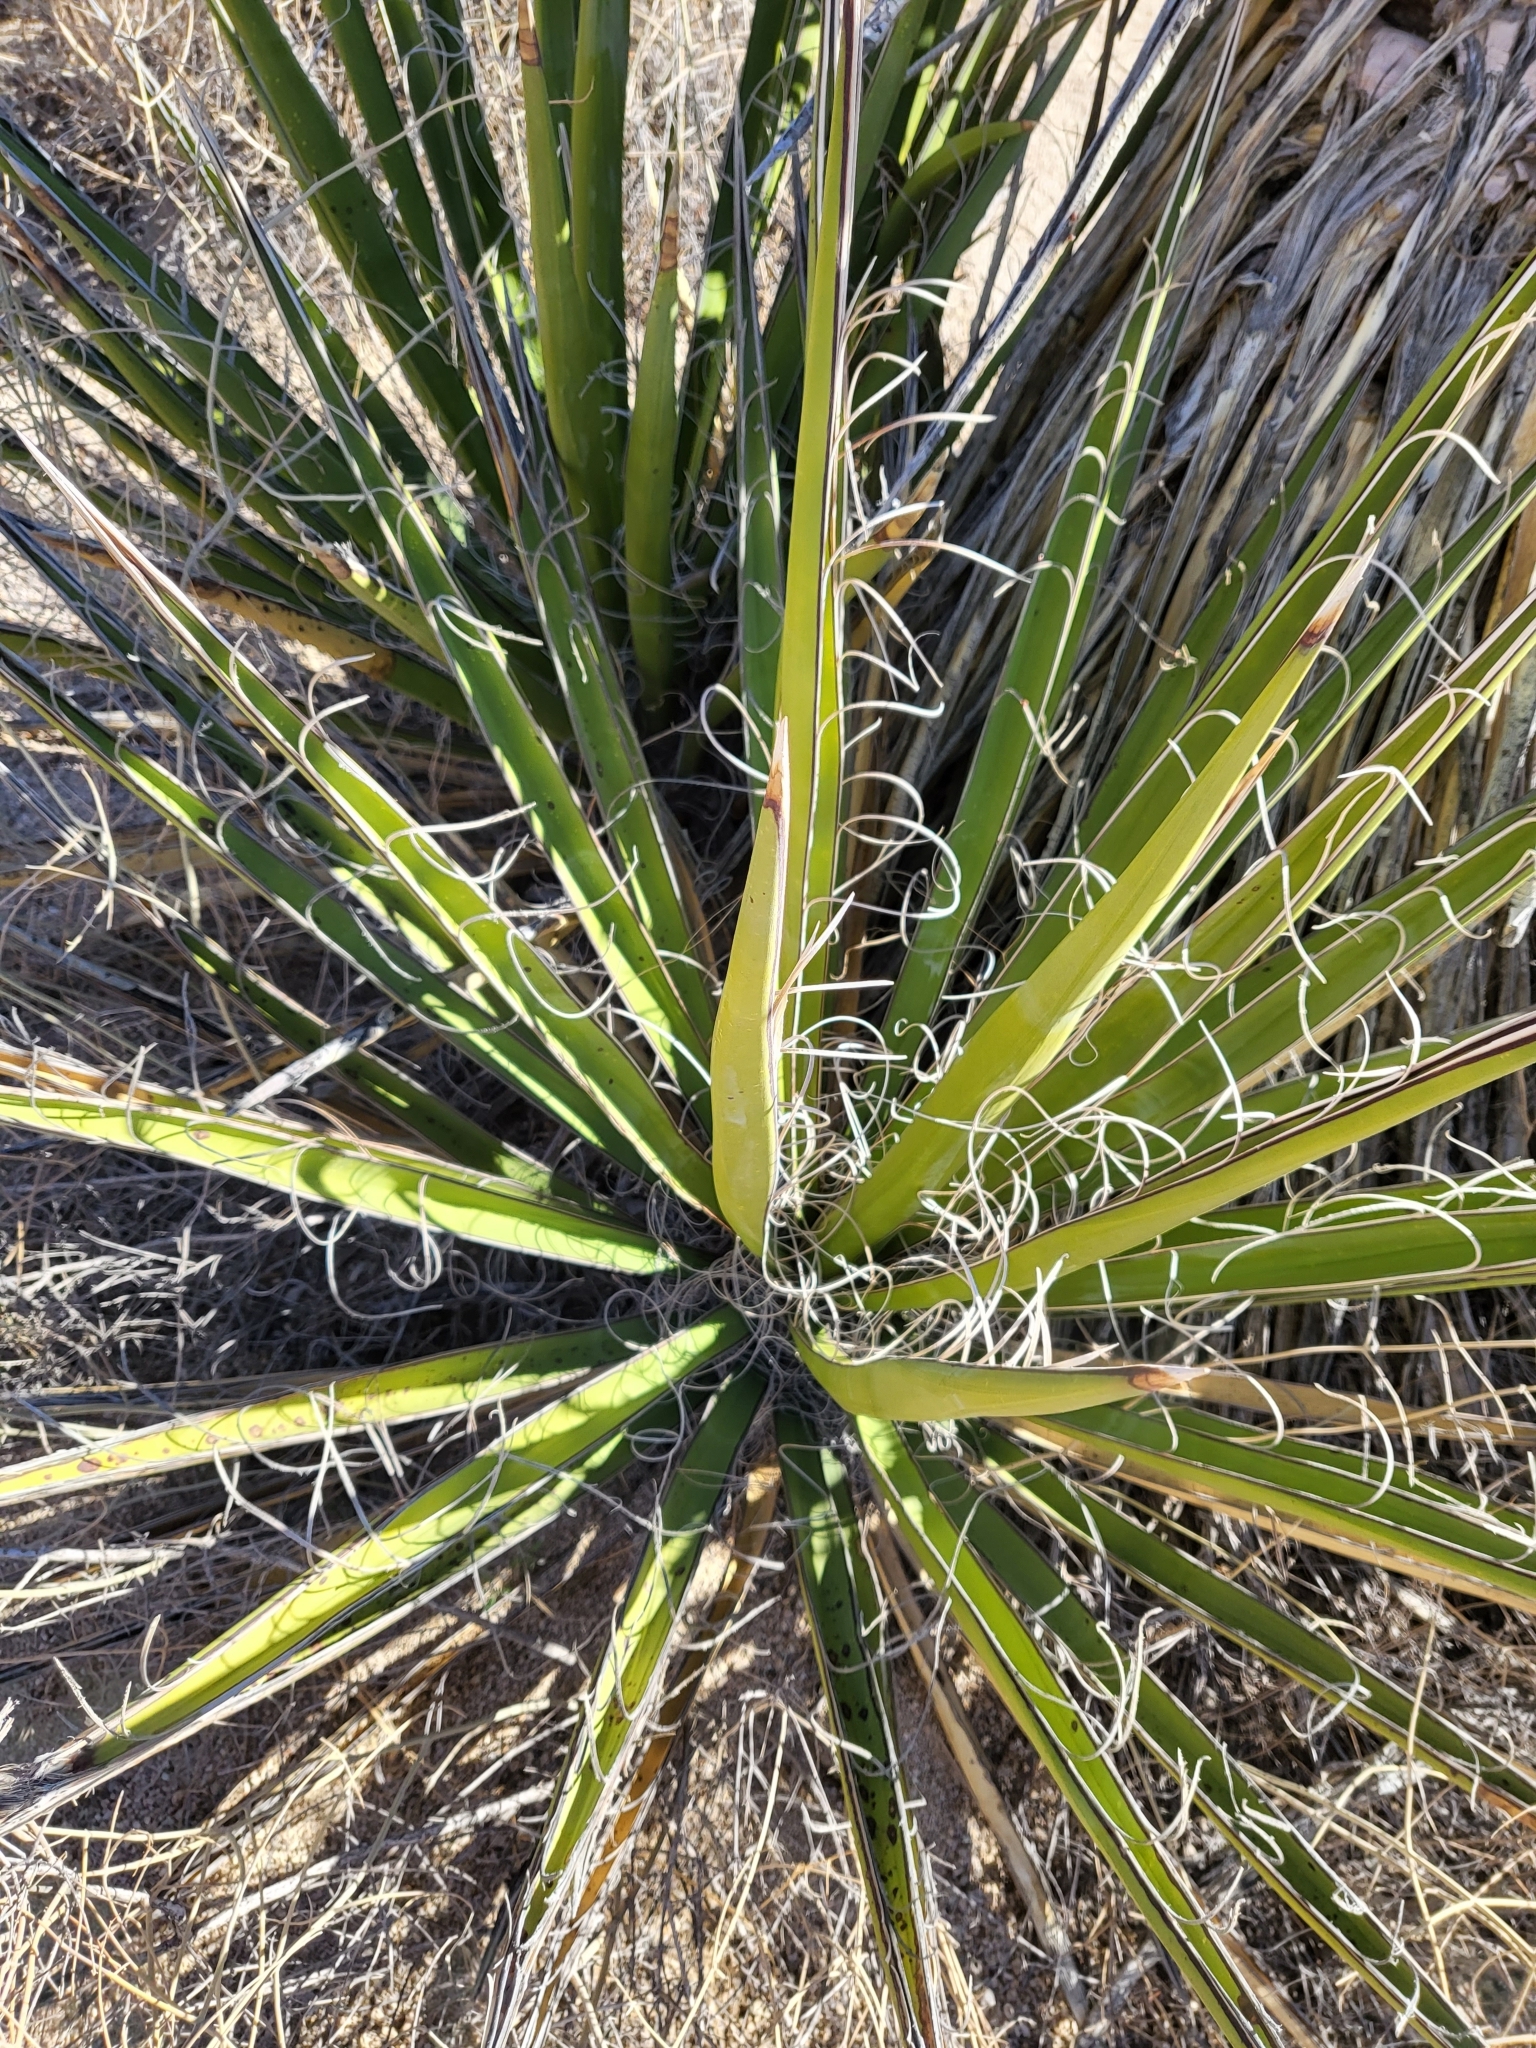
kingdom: Plantae
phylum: Tracheophyta
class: Liliopsida
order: Asparagales
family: Asparagaceae
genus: Yucca
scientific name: Yucca schidigera
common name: Mojave yucca
